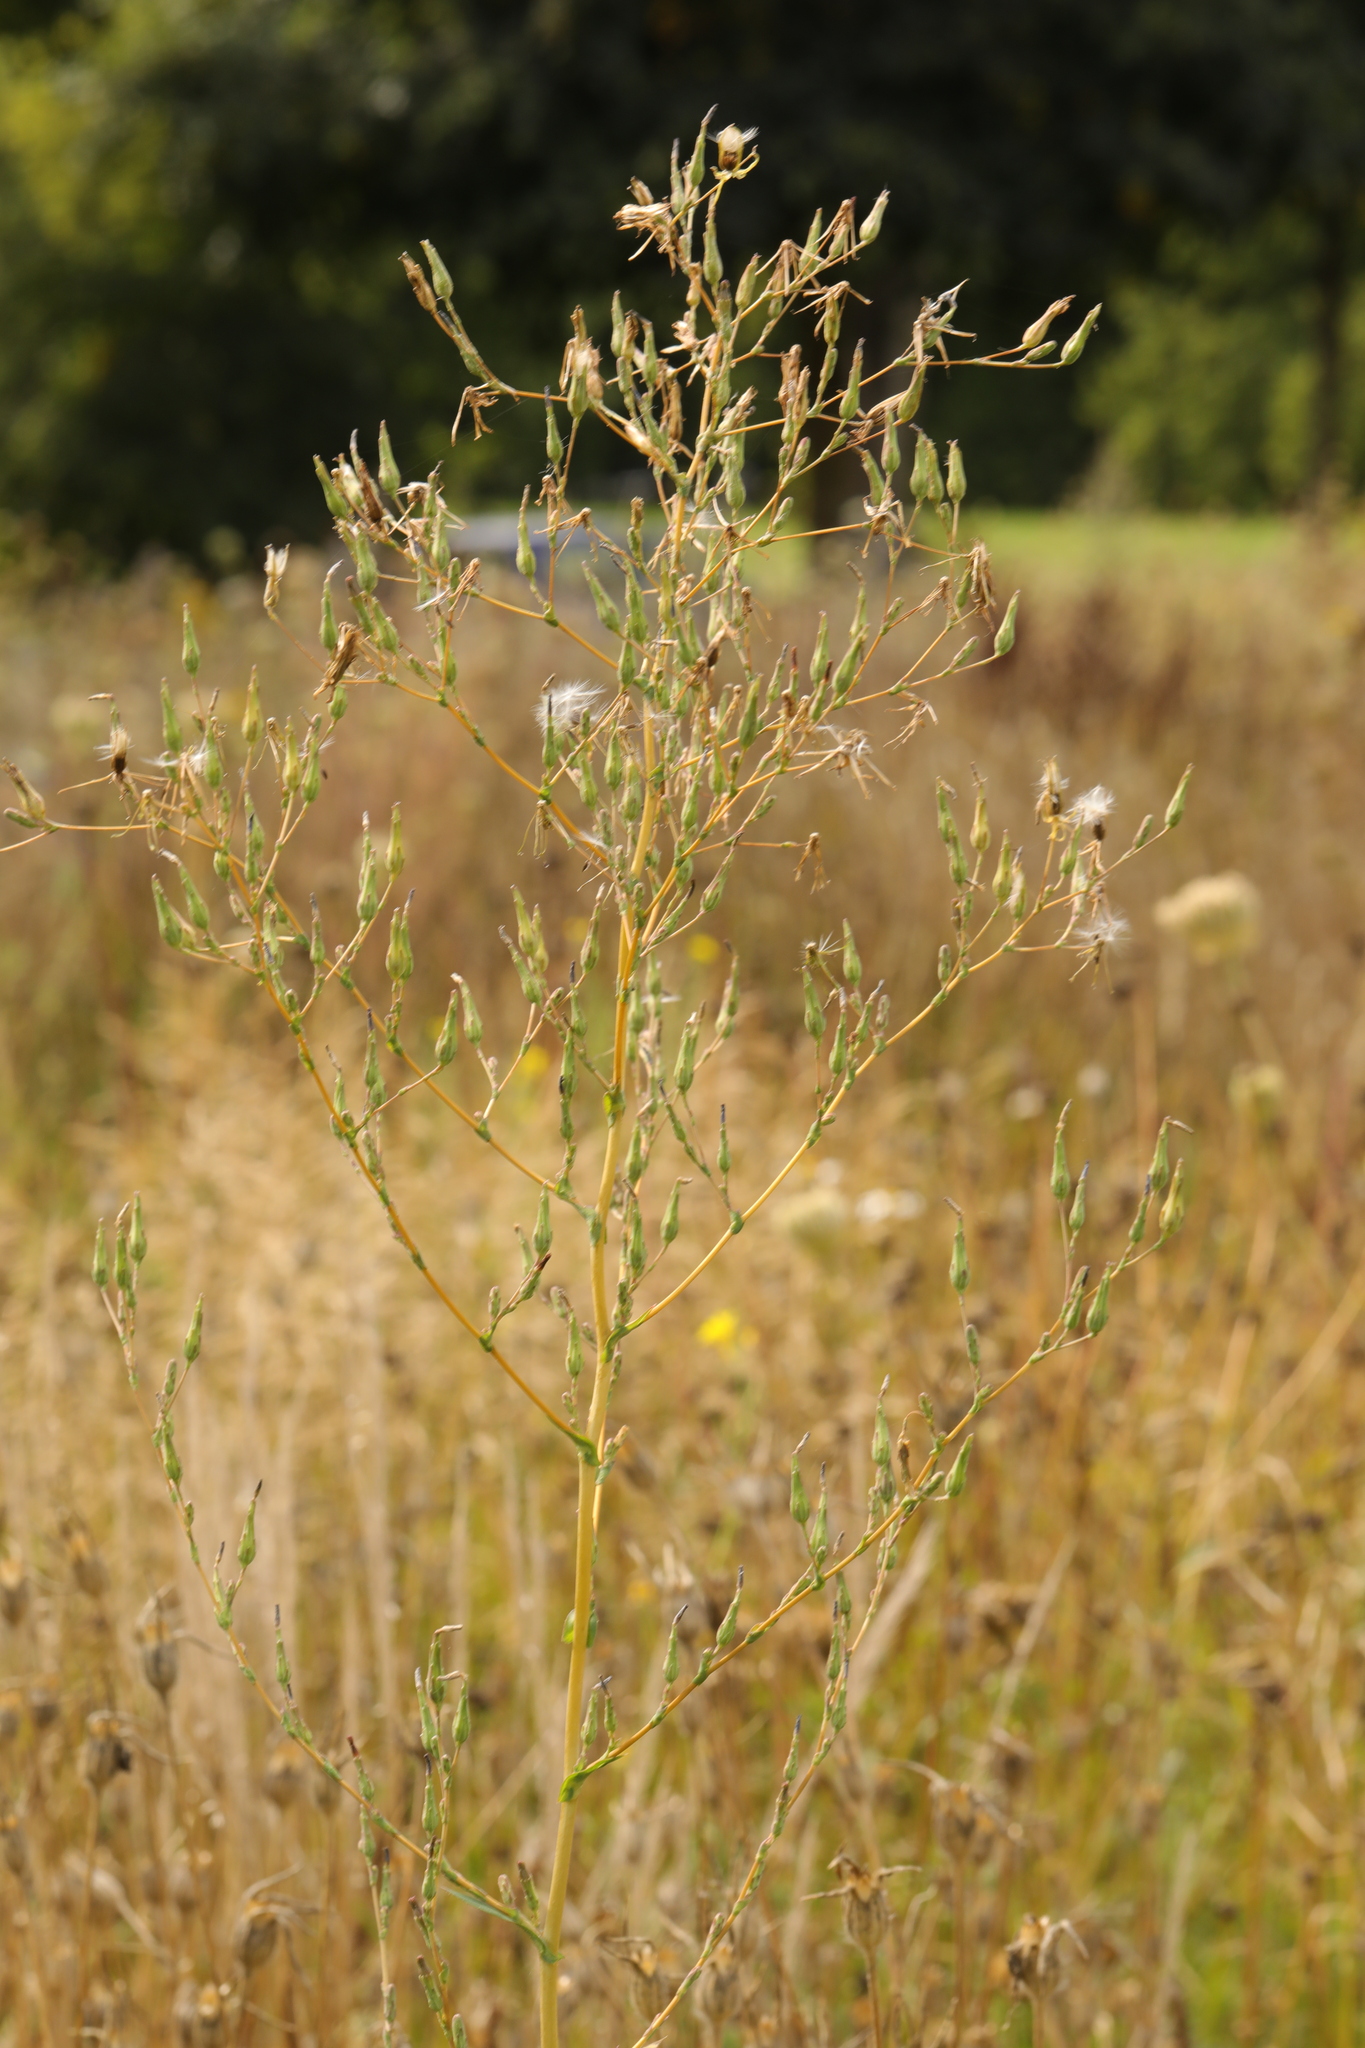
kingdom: Plantae
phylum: Tracheophyta
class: Magnoliopsida
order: Asterales
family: Asteraceae
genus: Lactuca
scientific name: Lactuca serriola
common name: Prickly lettuce
